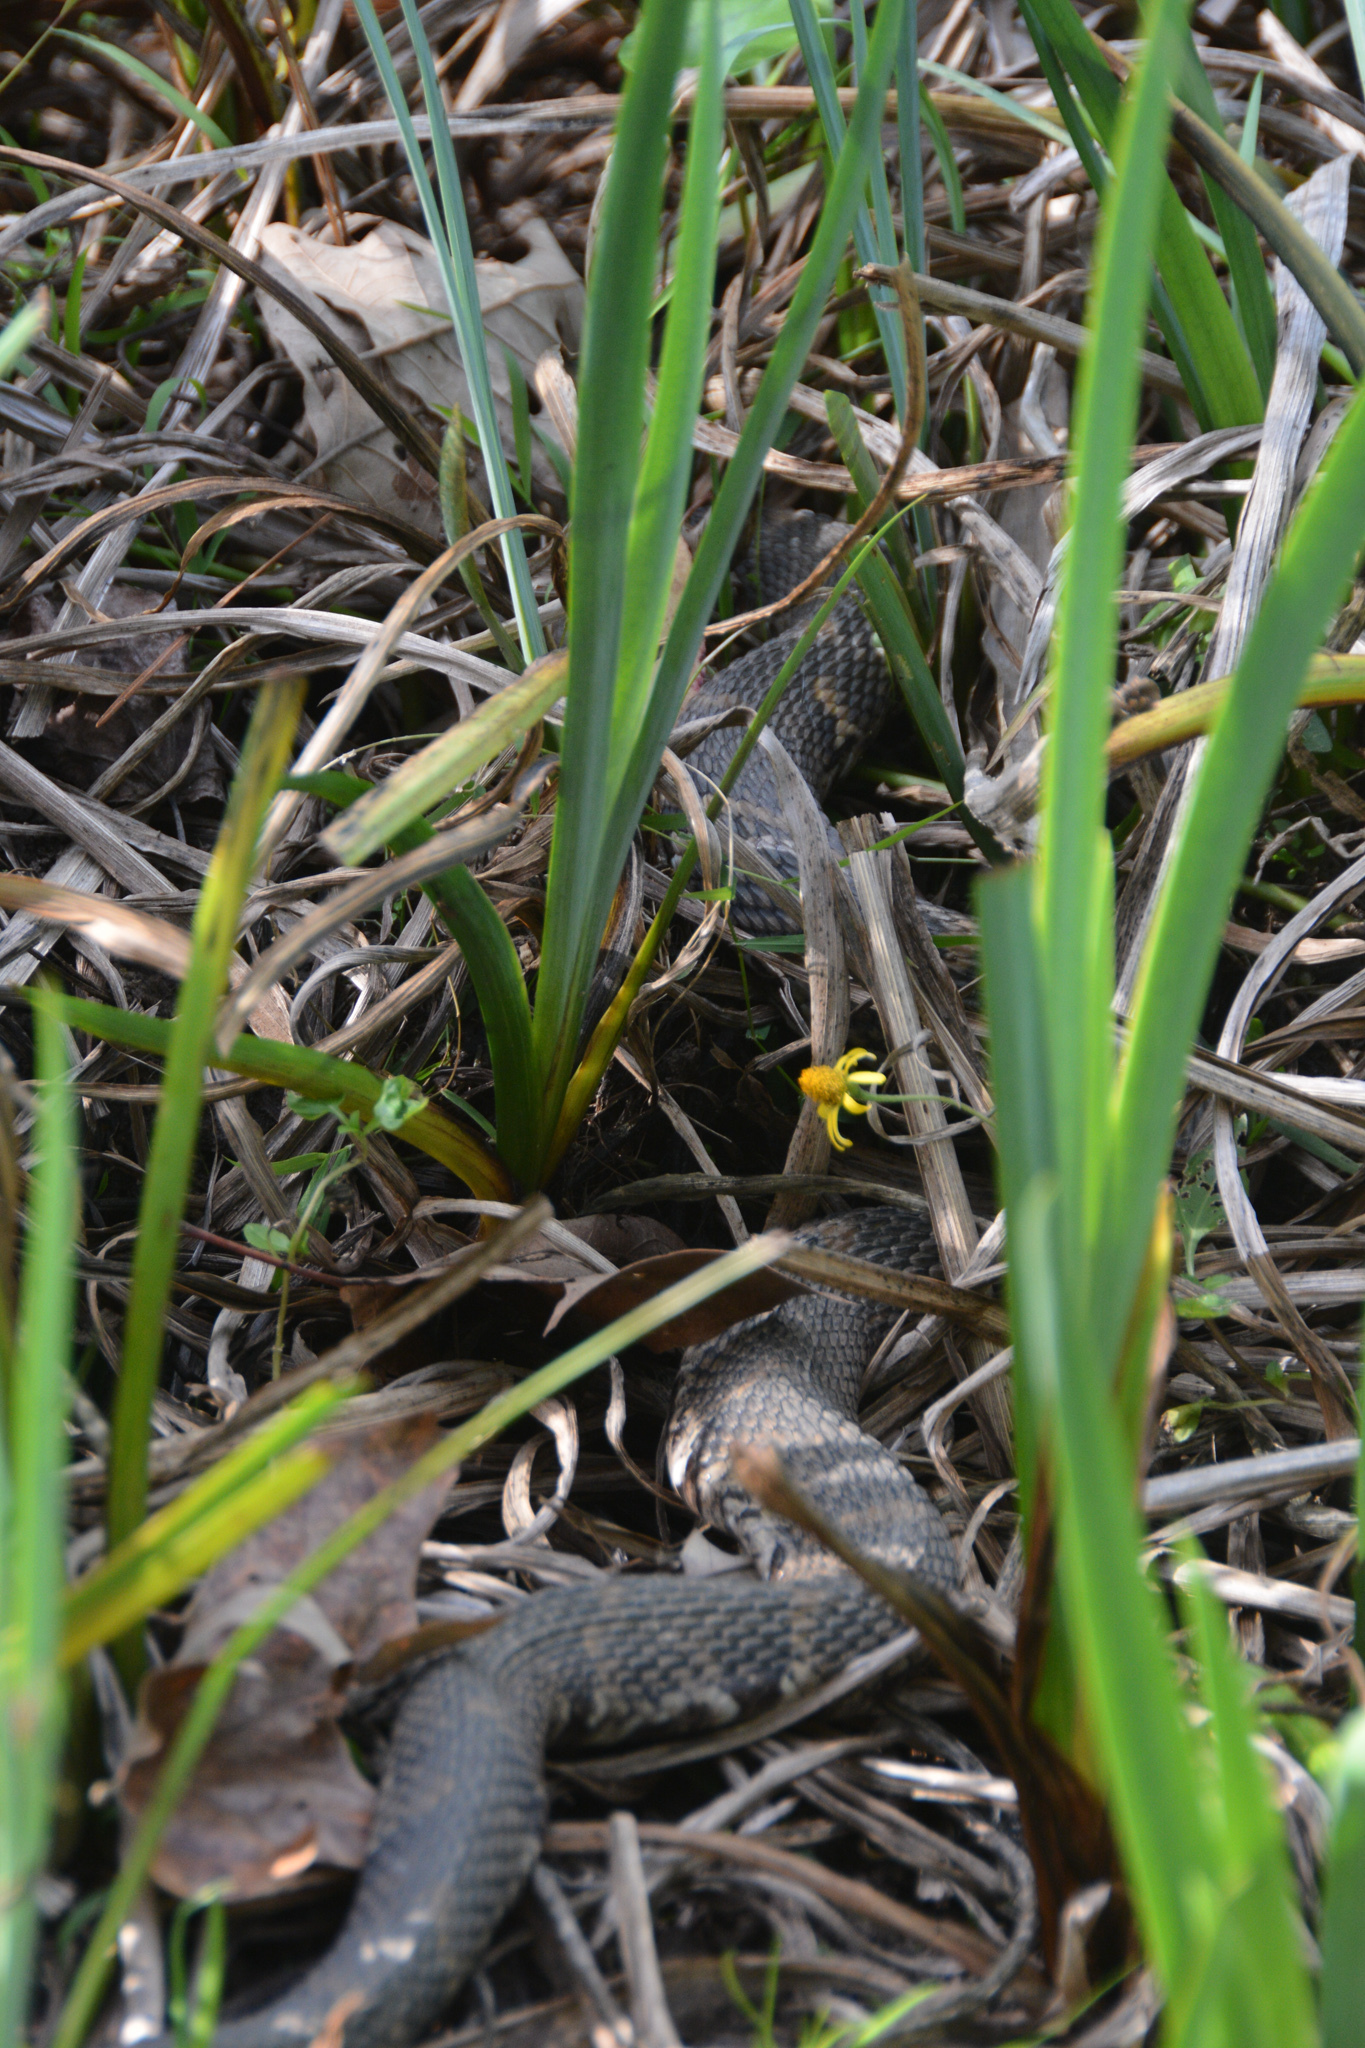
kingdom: Animalia
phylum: Chordata
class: Squamata
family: Colubridae
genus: Nerodia
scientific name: Nerodia fasciata
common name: Southern water snake
